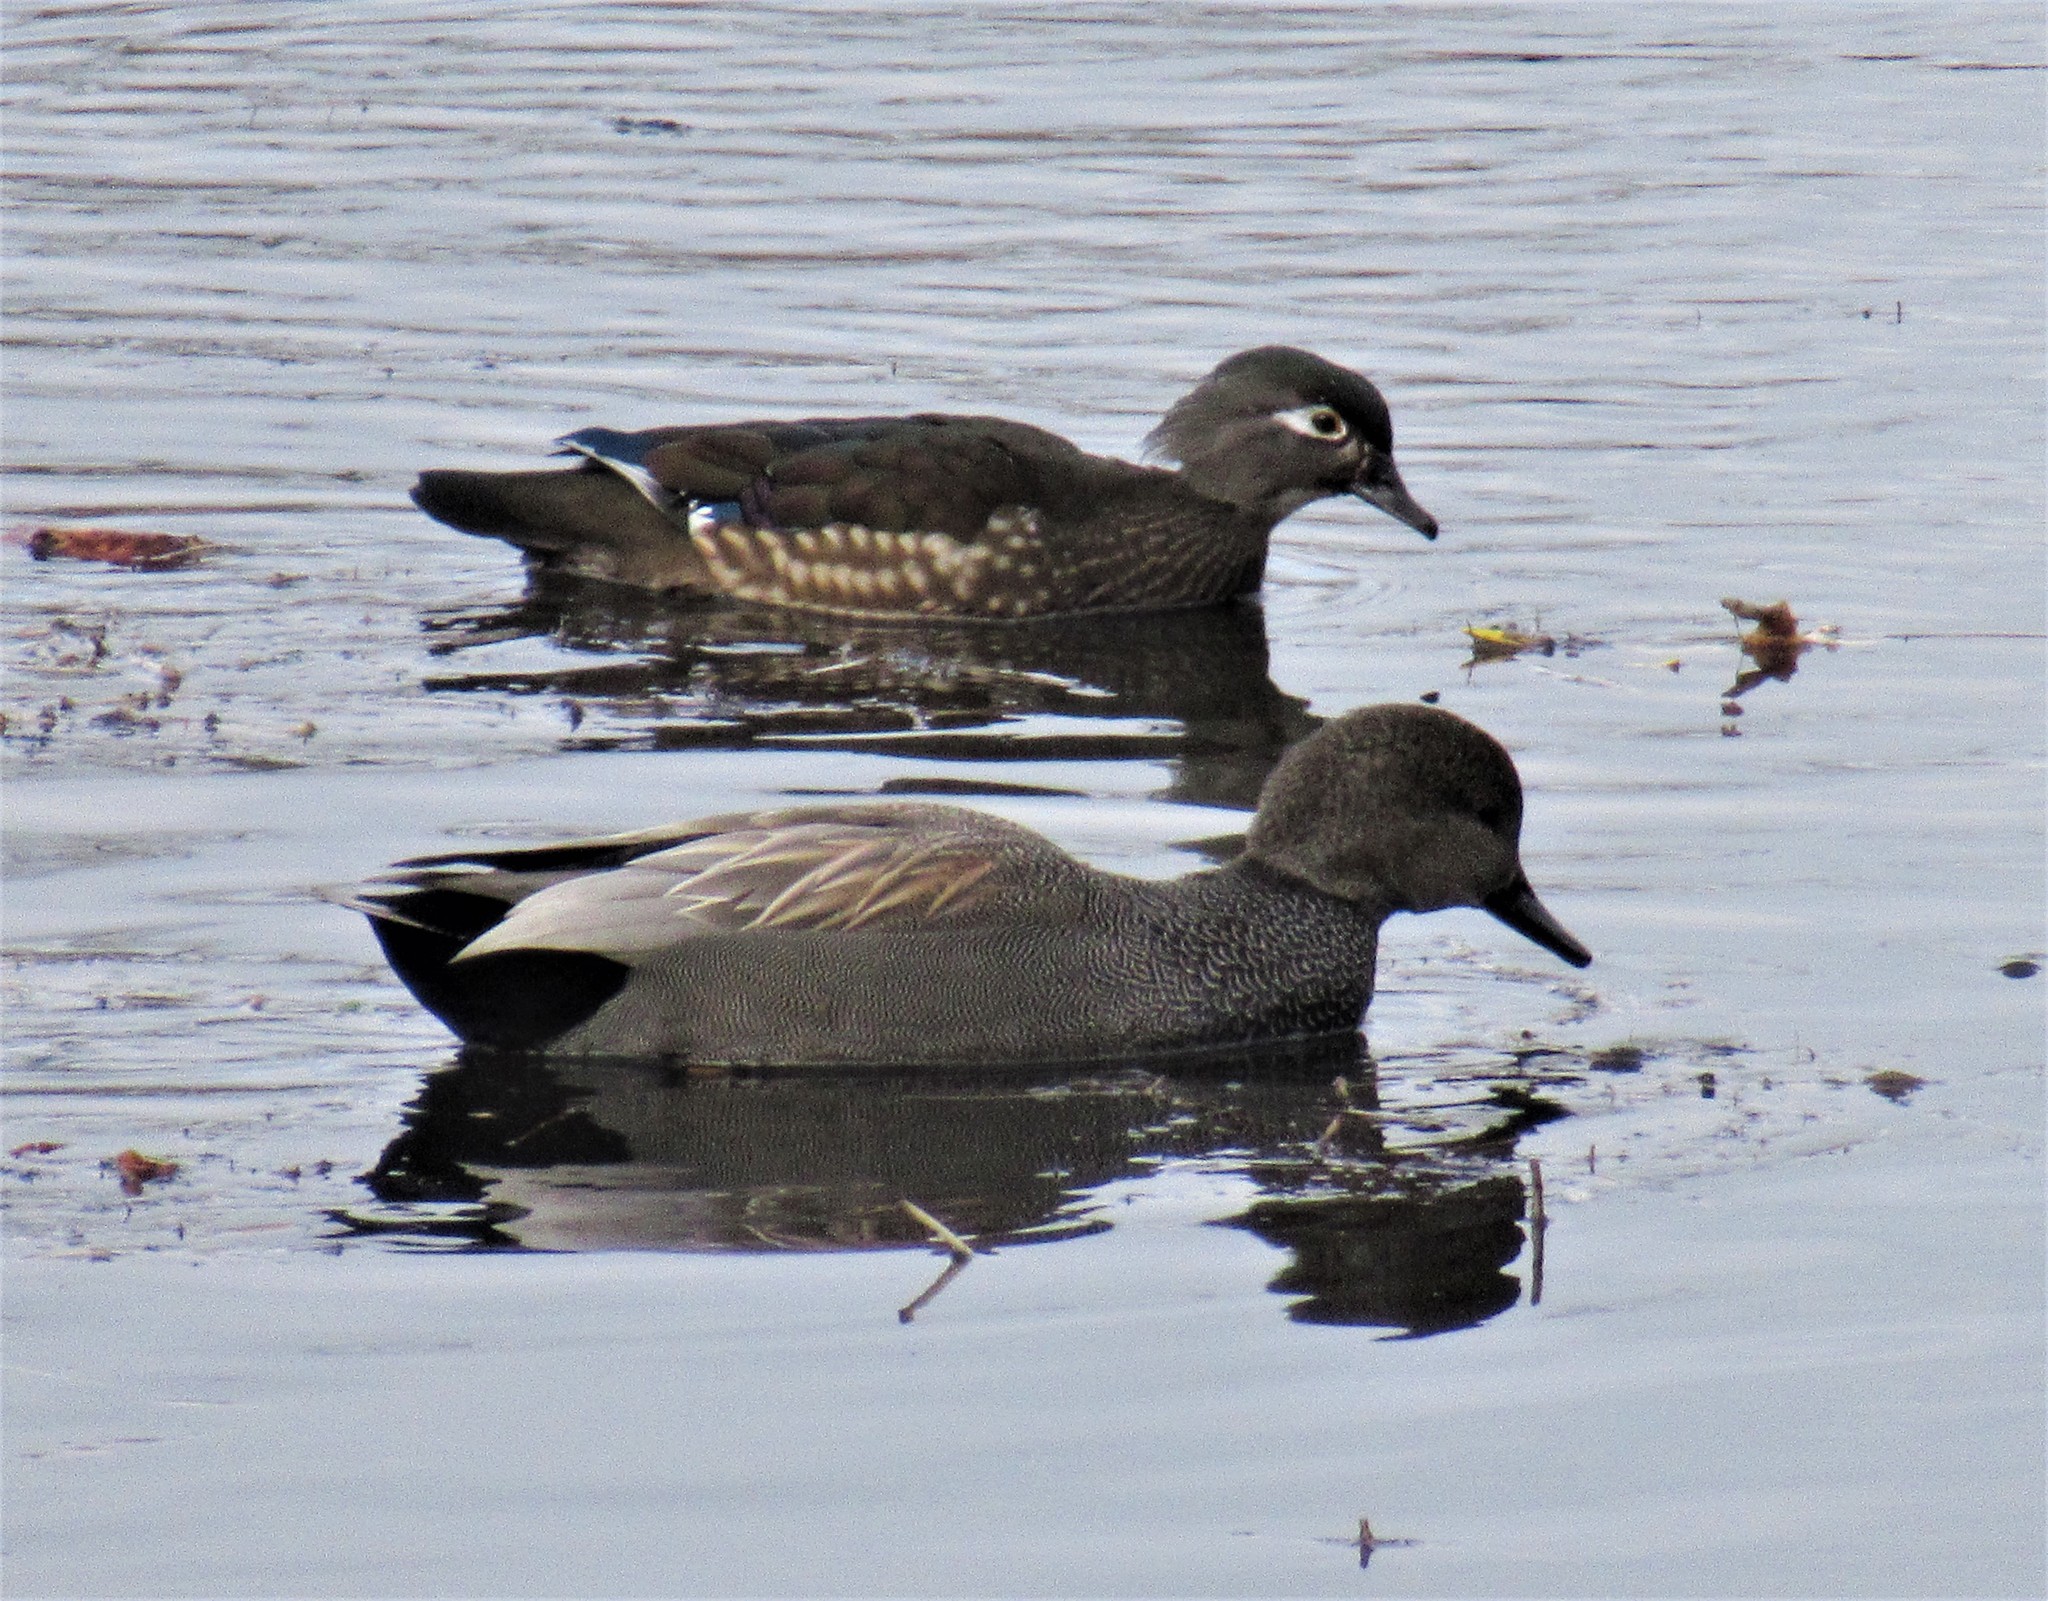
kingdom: Animalia
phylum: Chordata
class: Aves
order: Anseriformes
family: Anatidae
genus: Mareca
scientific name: Mareca strepera
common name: Gadwall
